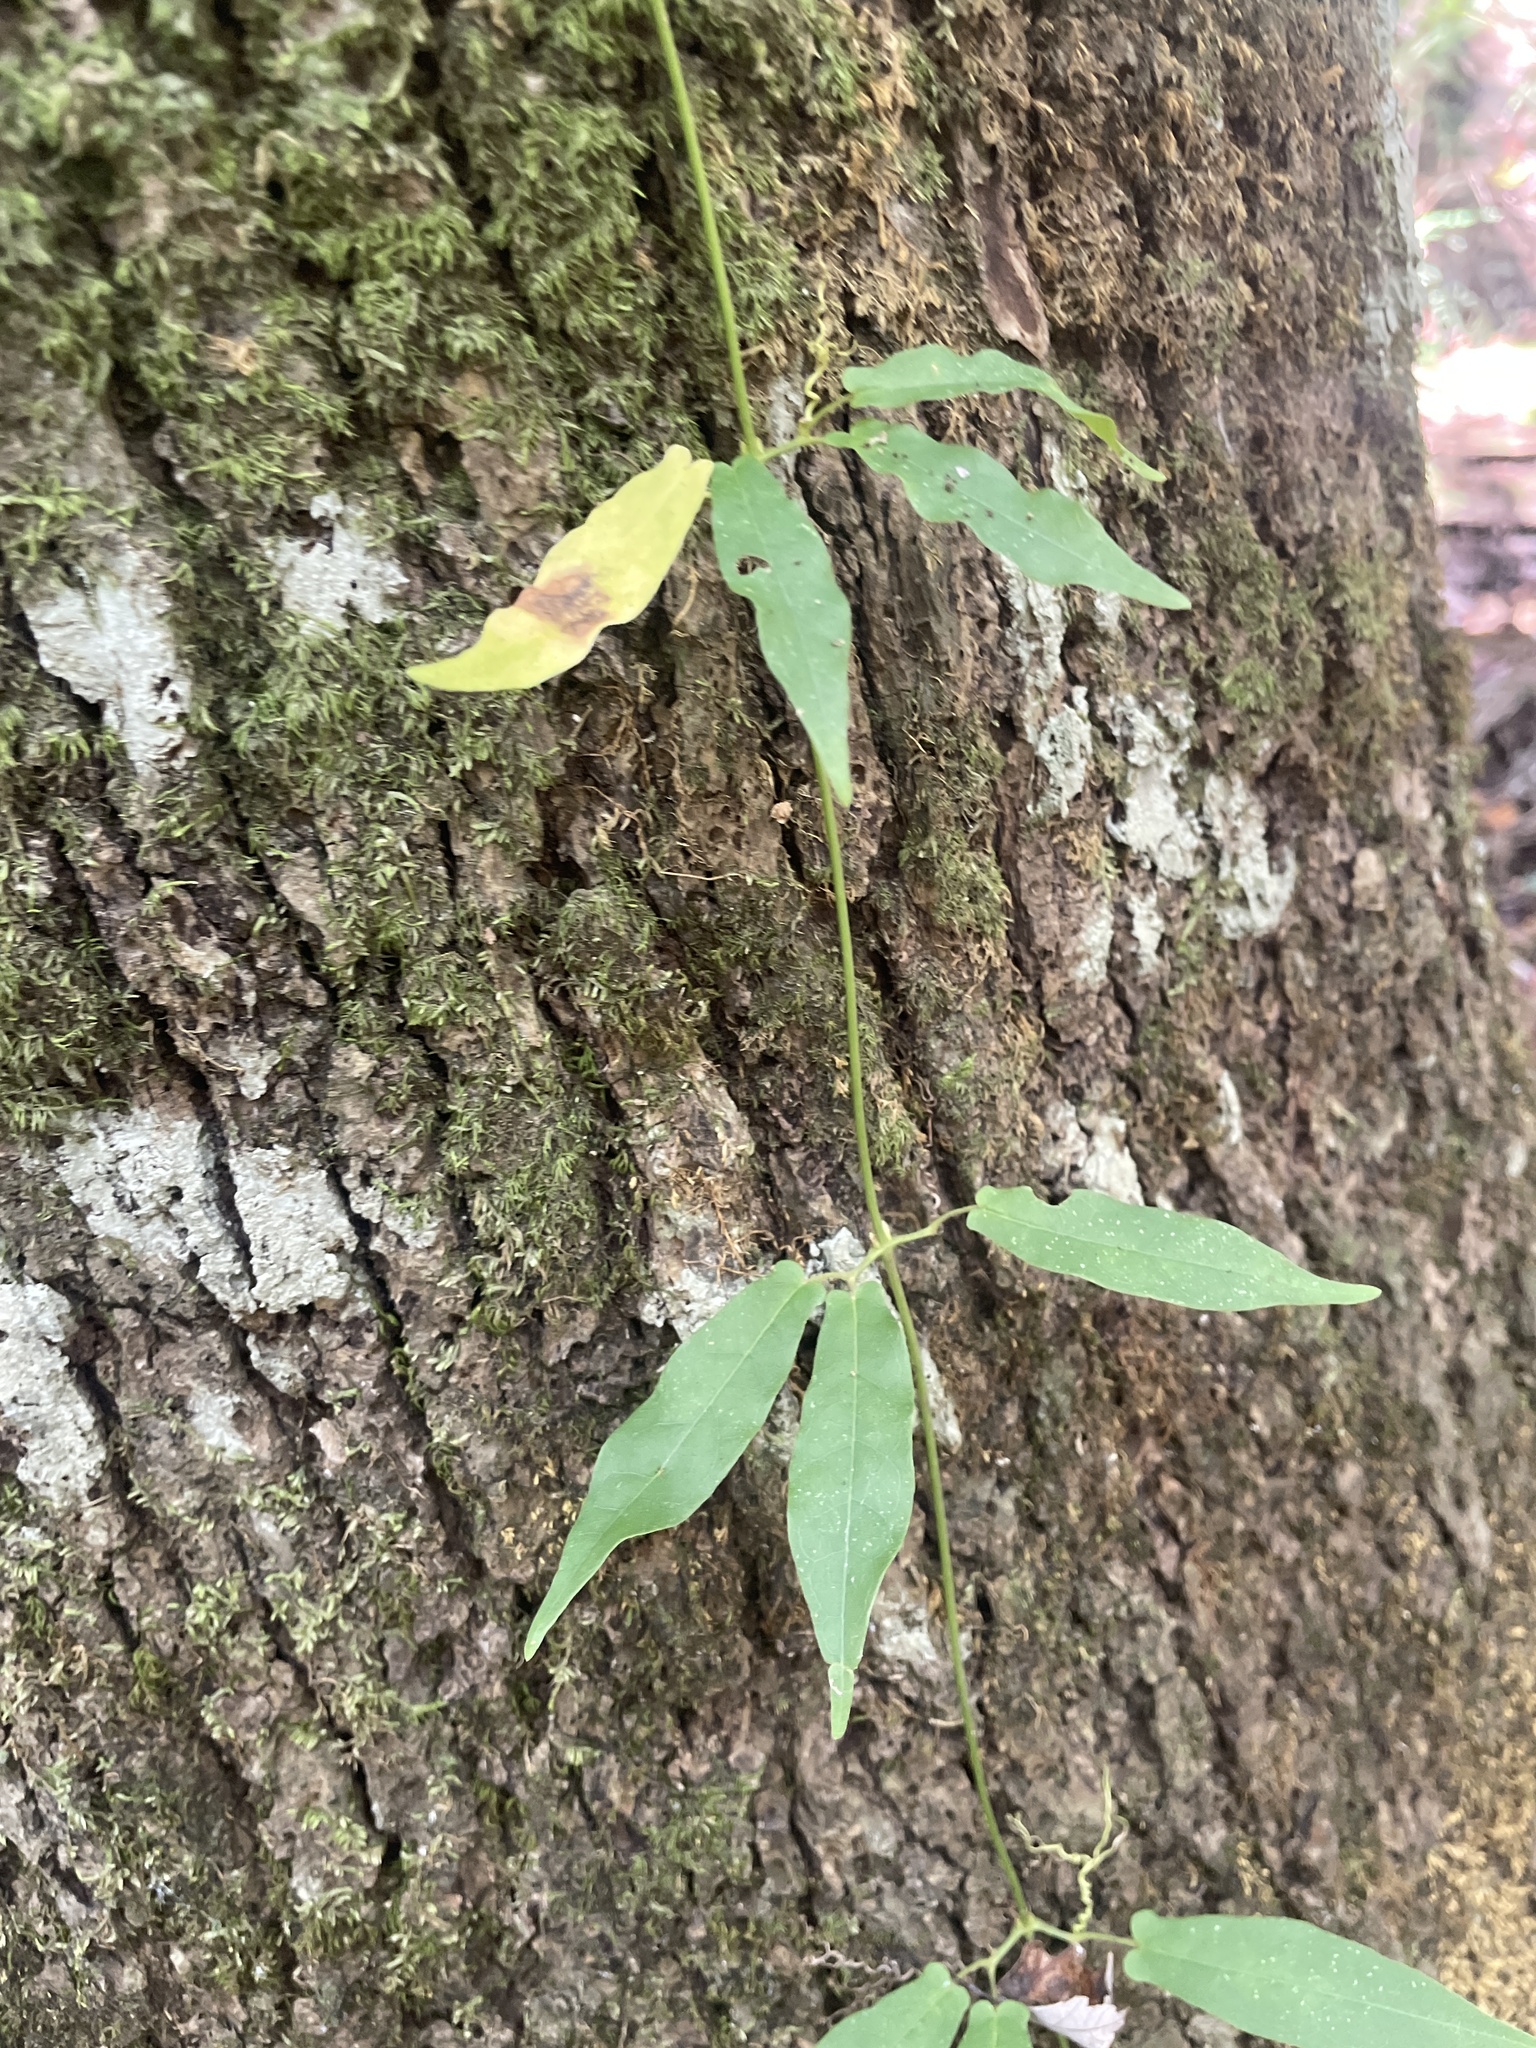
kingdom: Plantae
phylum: Tracheophyta
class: Magnoliopsida
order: Lamiales
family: Bignoniaceae
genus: Bignonia
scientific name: Bignonia capreolata
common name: Crossvine
